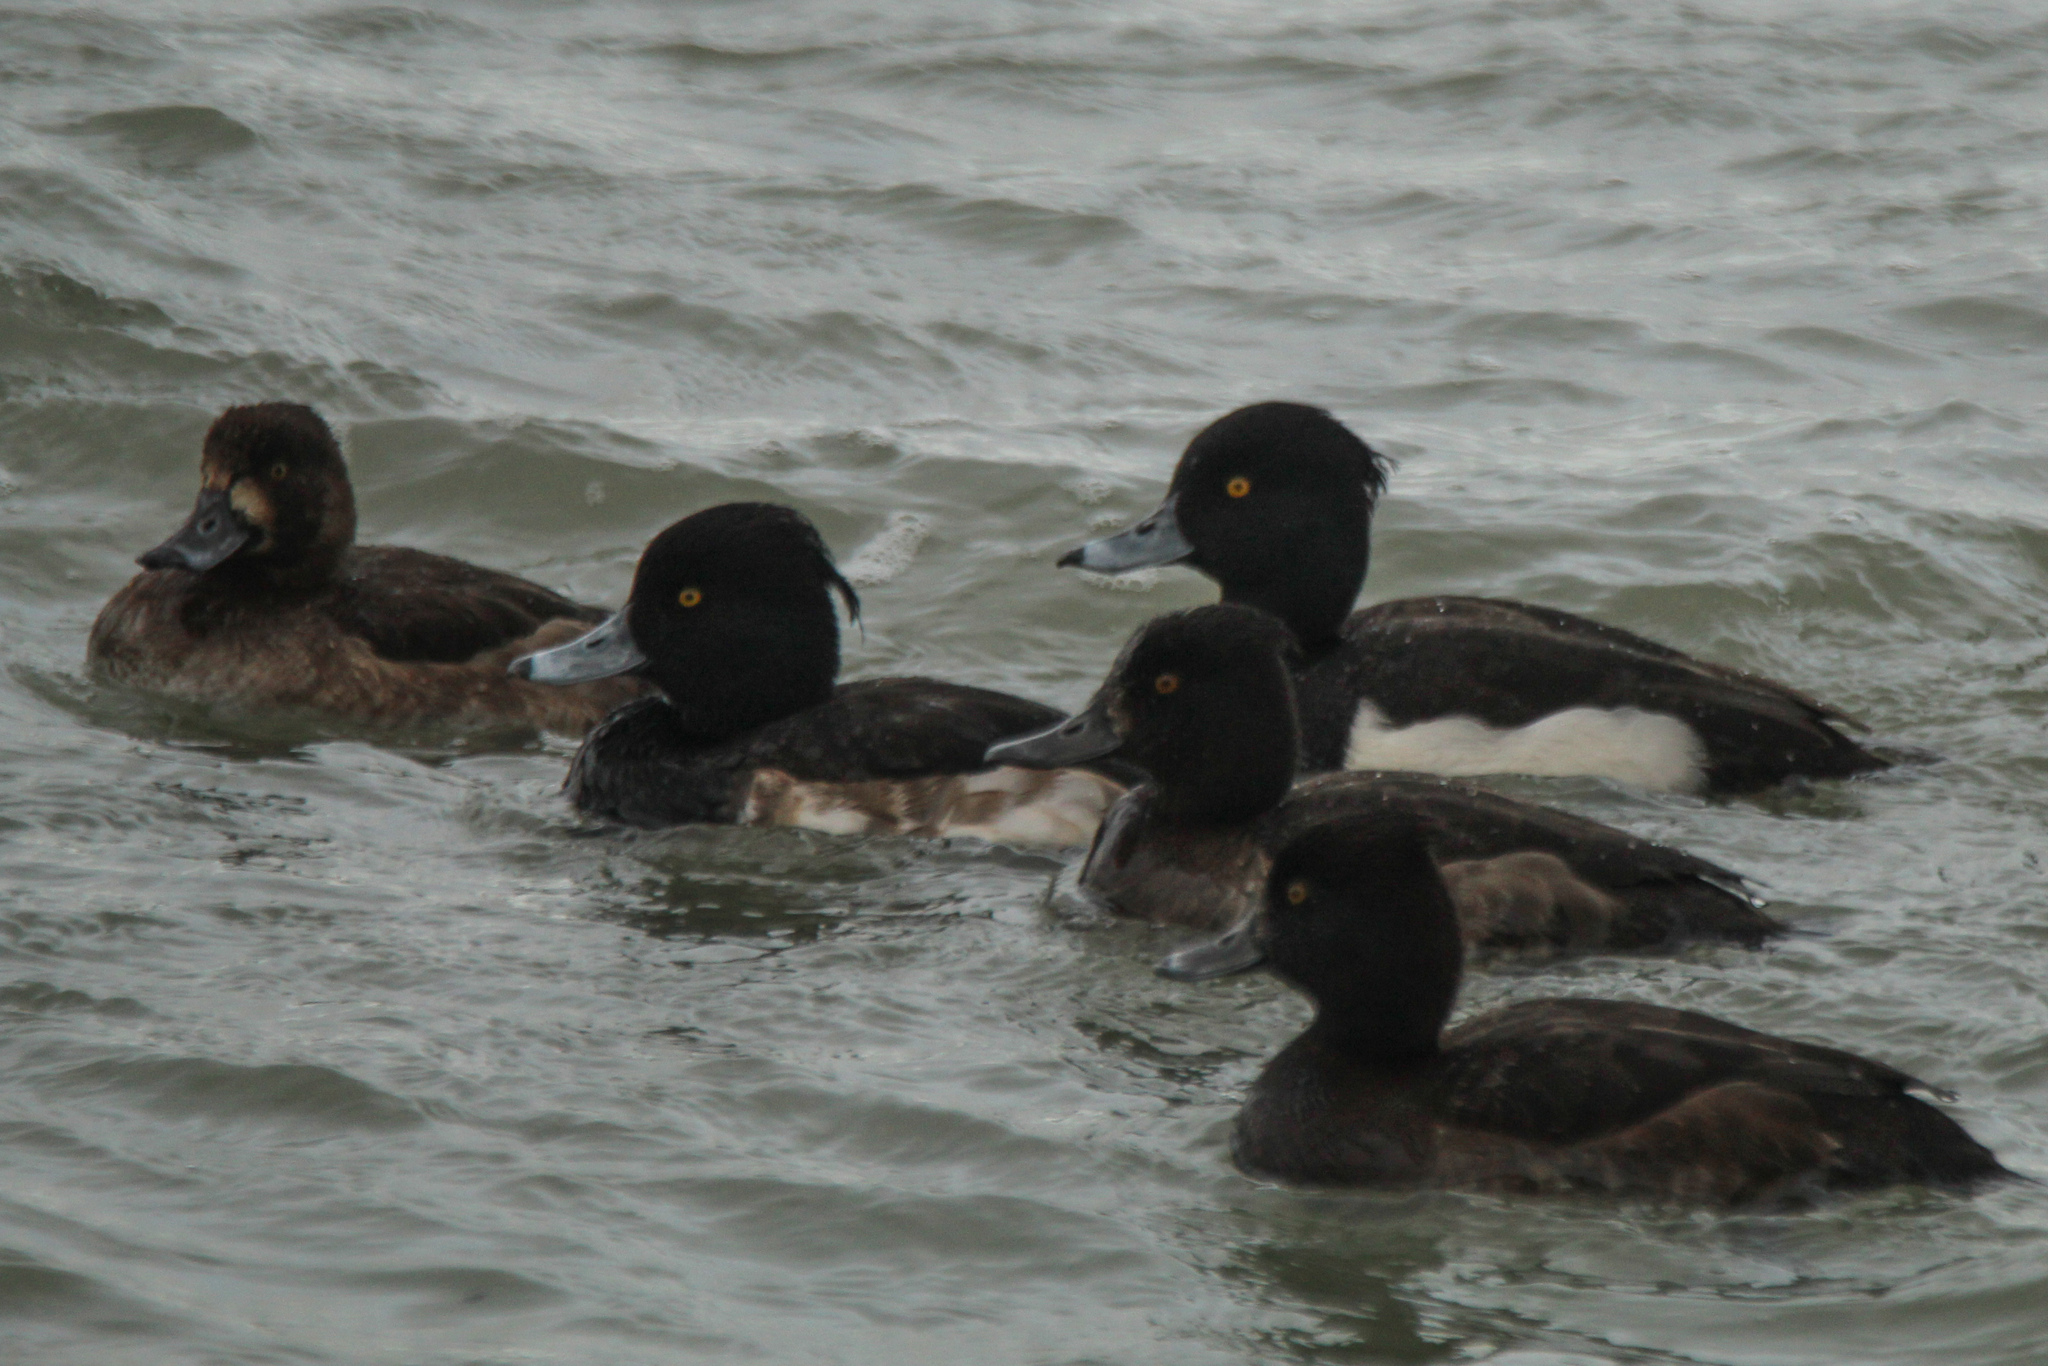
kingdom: Animalia
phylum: Chordata
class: Aves
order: Anseriformes
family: Anatidae
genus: Aythya
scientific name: Aythya fuligula
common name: Tufted duck
